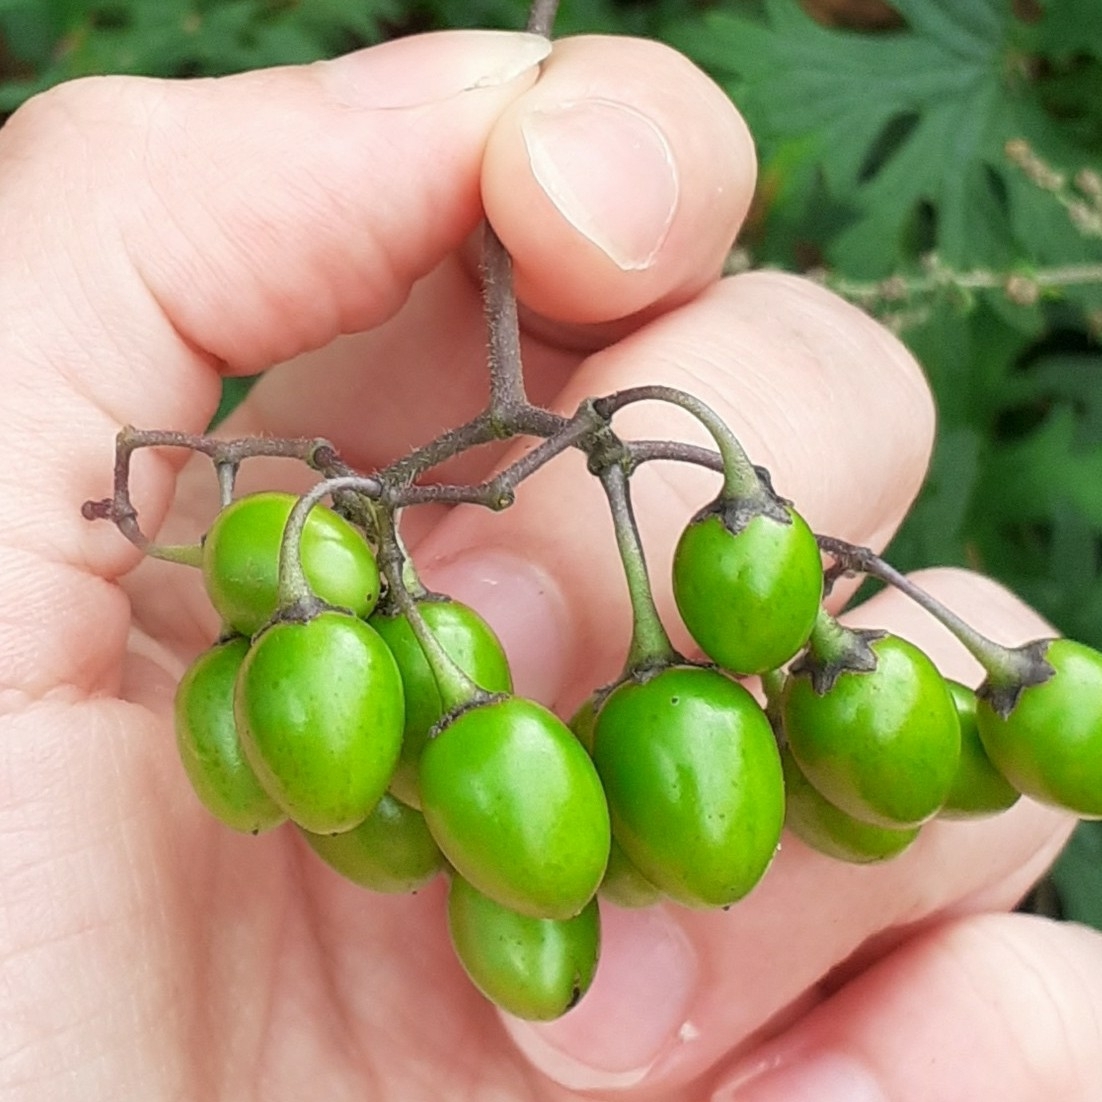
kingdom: Plantae
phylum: Tracheophyta
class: Magnoliopsida
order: Solanales
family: Solanaceae
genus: Solanum
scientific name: Solanum dulcamara
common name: Climbing nightshade
